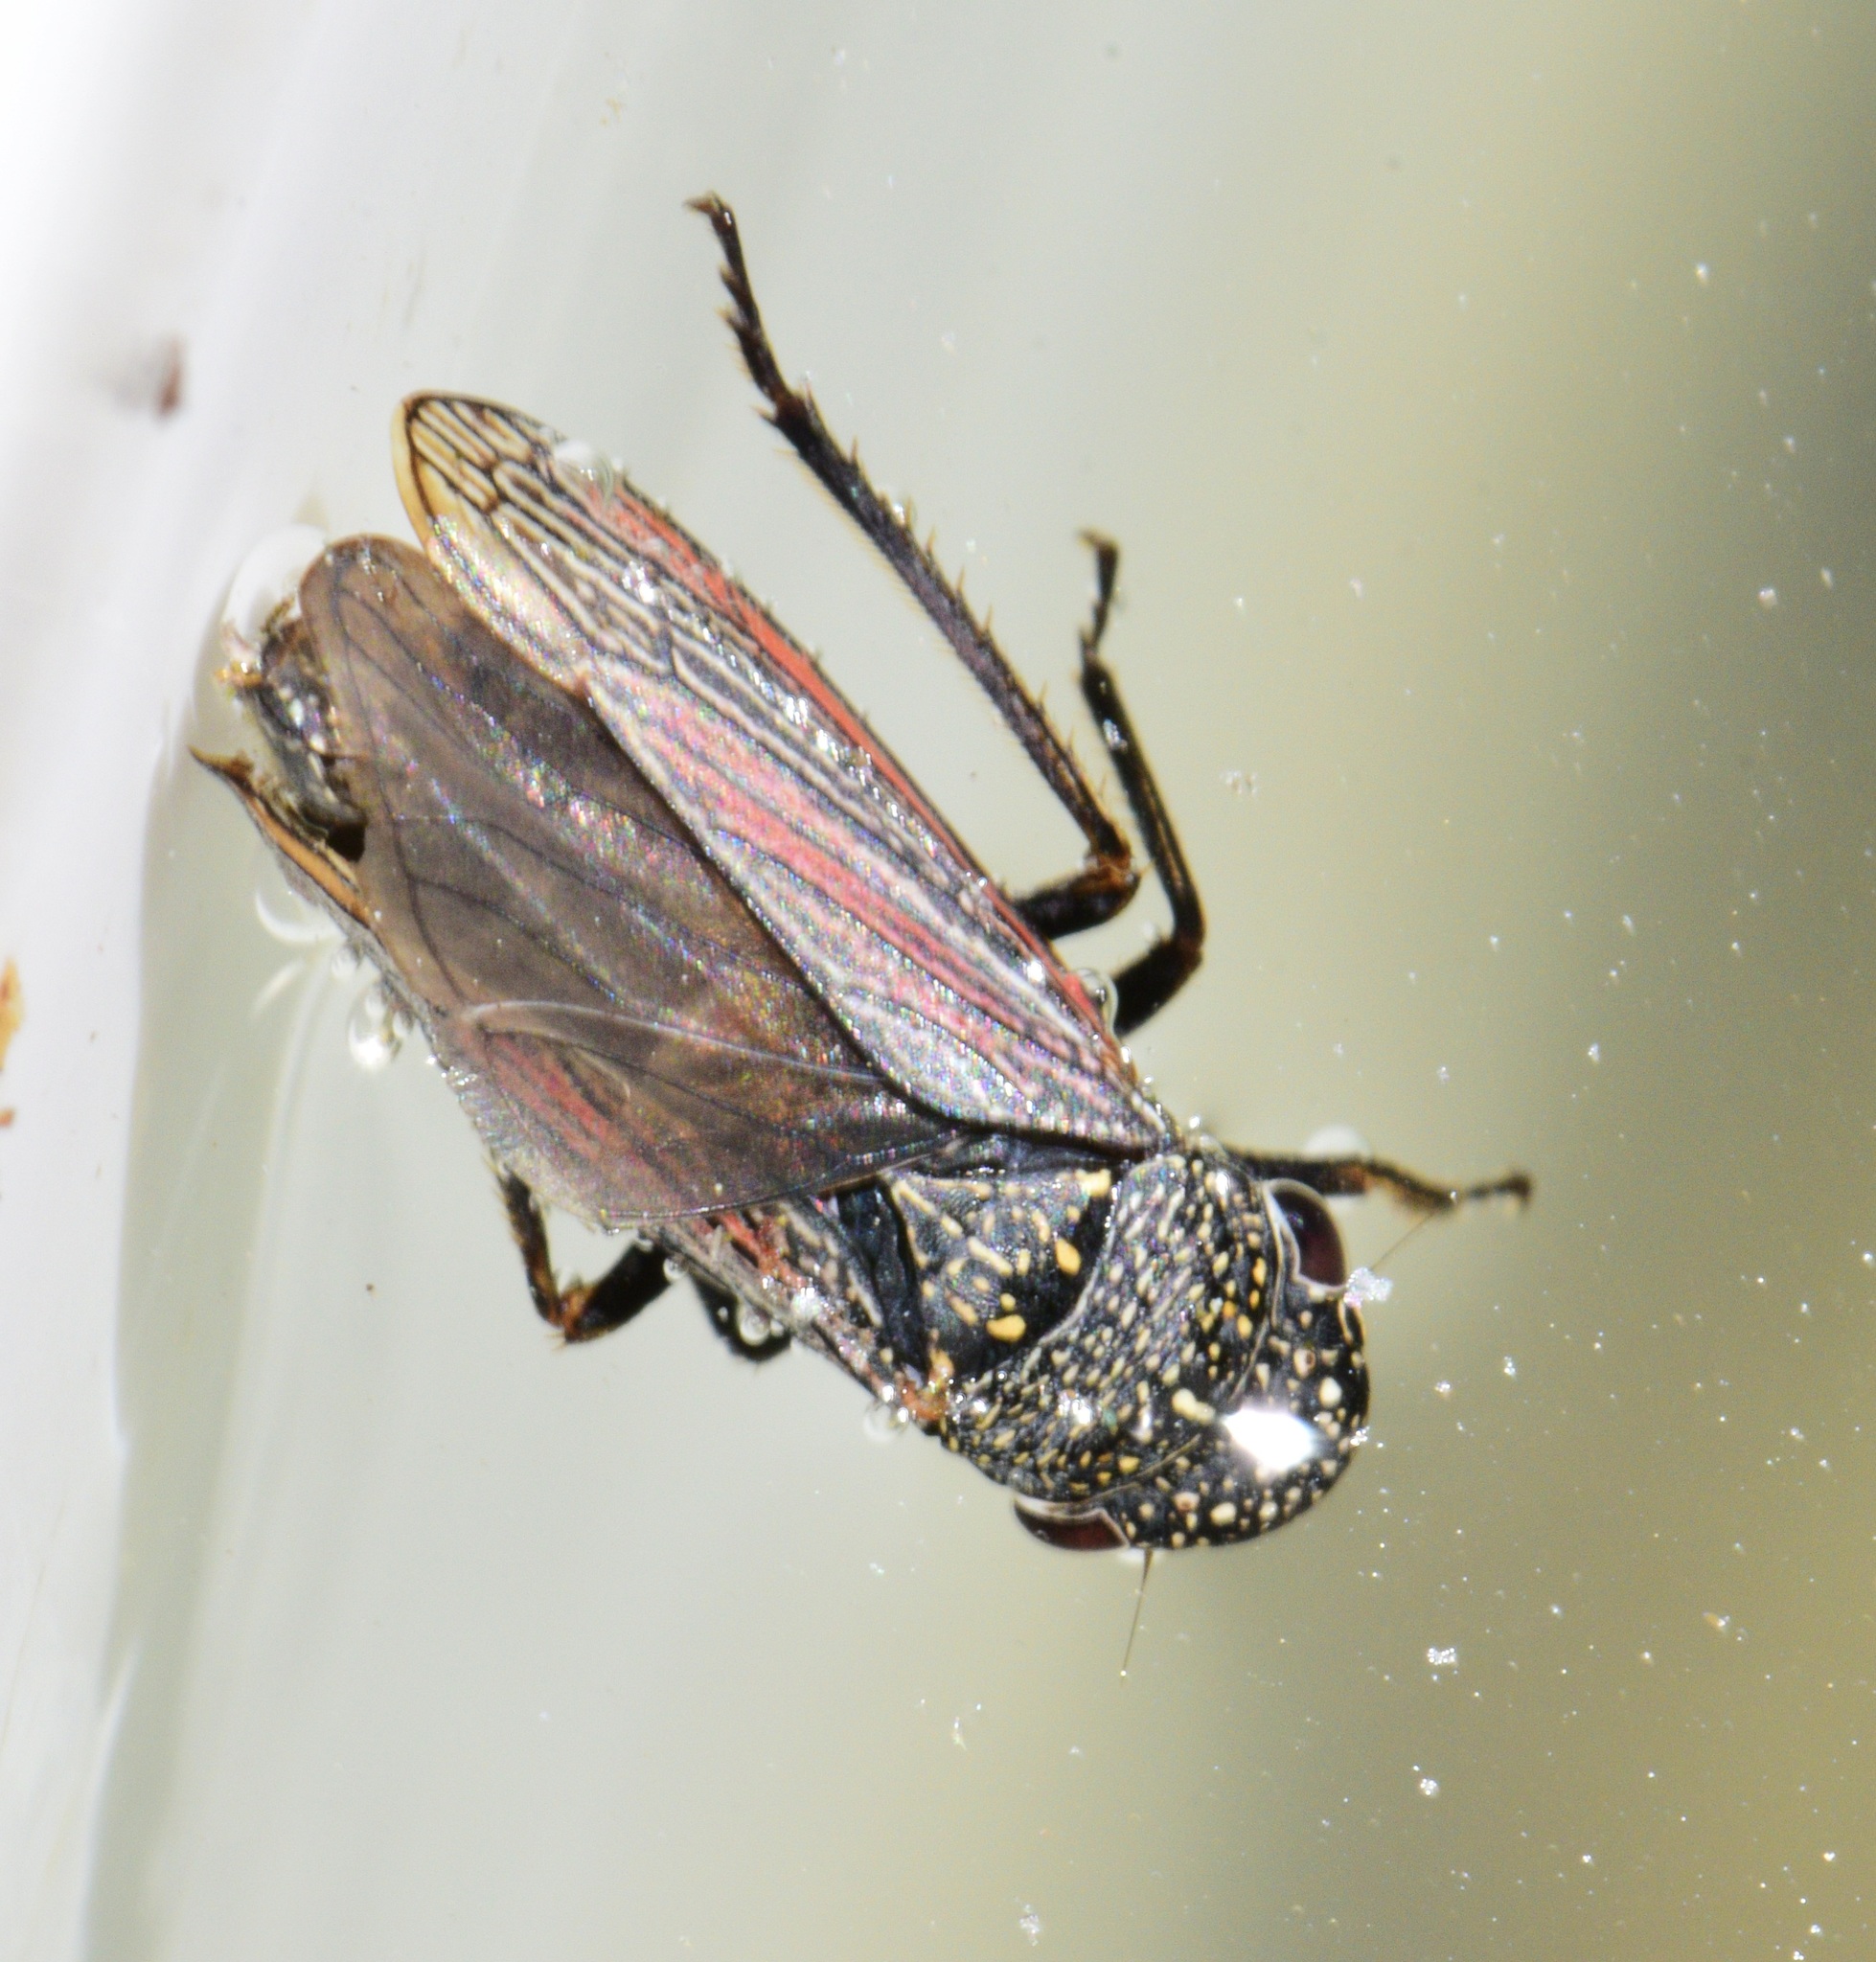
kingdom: Animalia
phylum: Arthropoda
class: Insecta
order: Hemiptera
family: Cicadellidae
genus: Cuerna
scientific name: Cuerna striata
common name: Striped leafhopper
